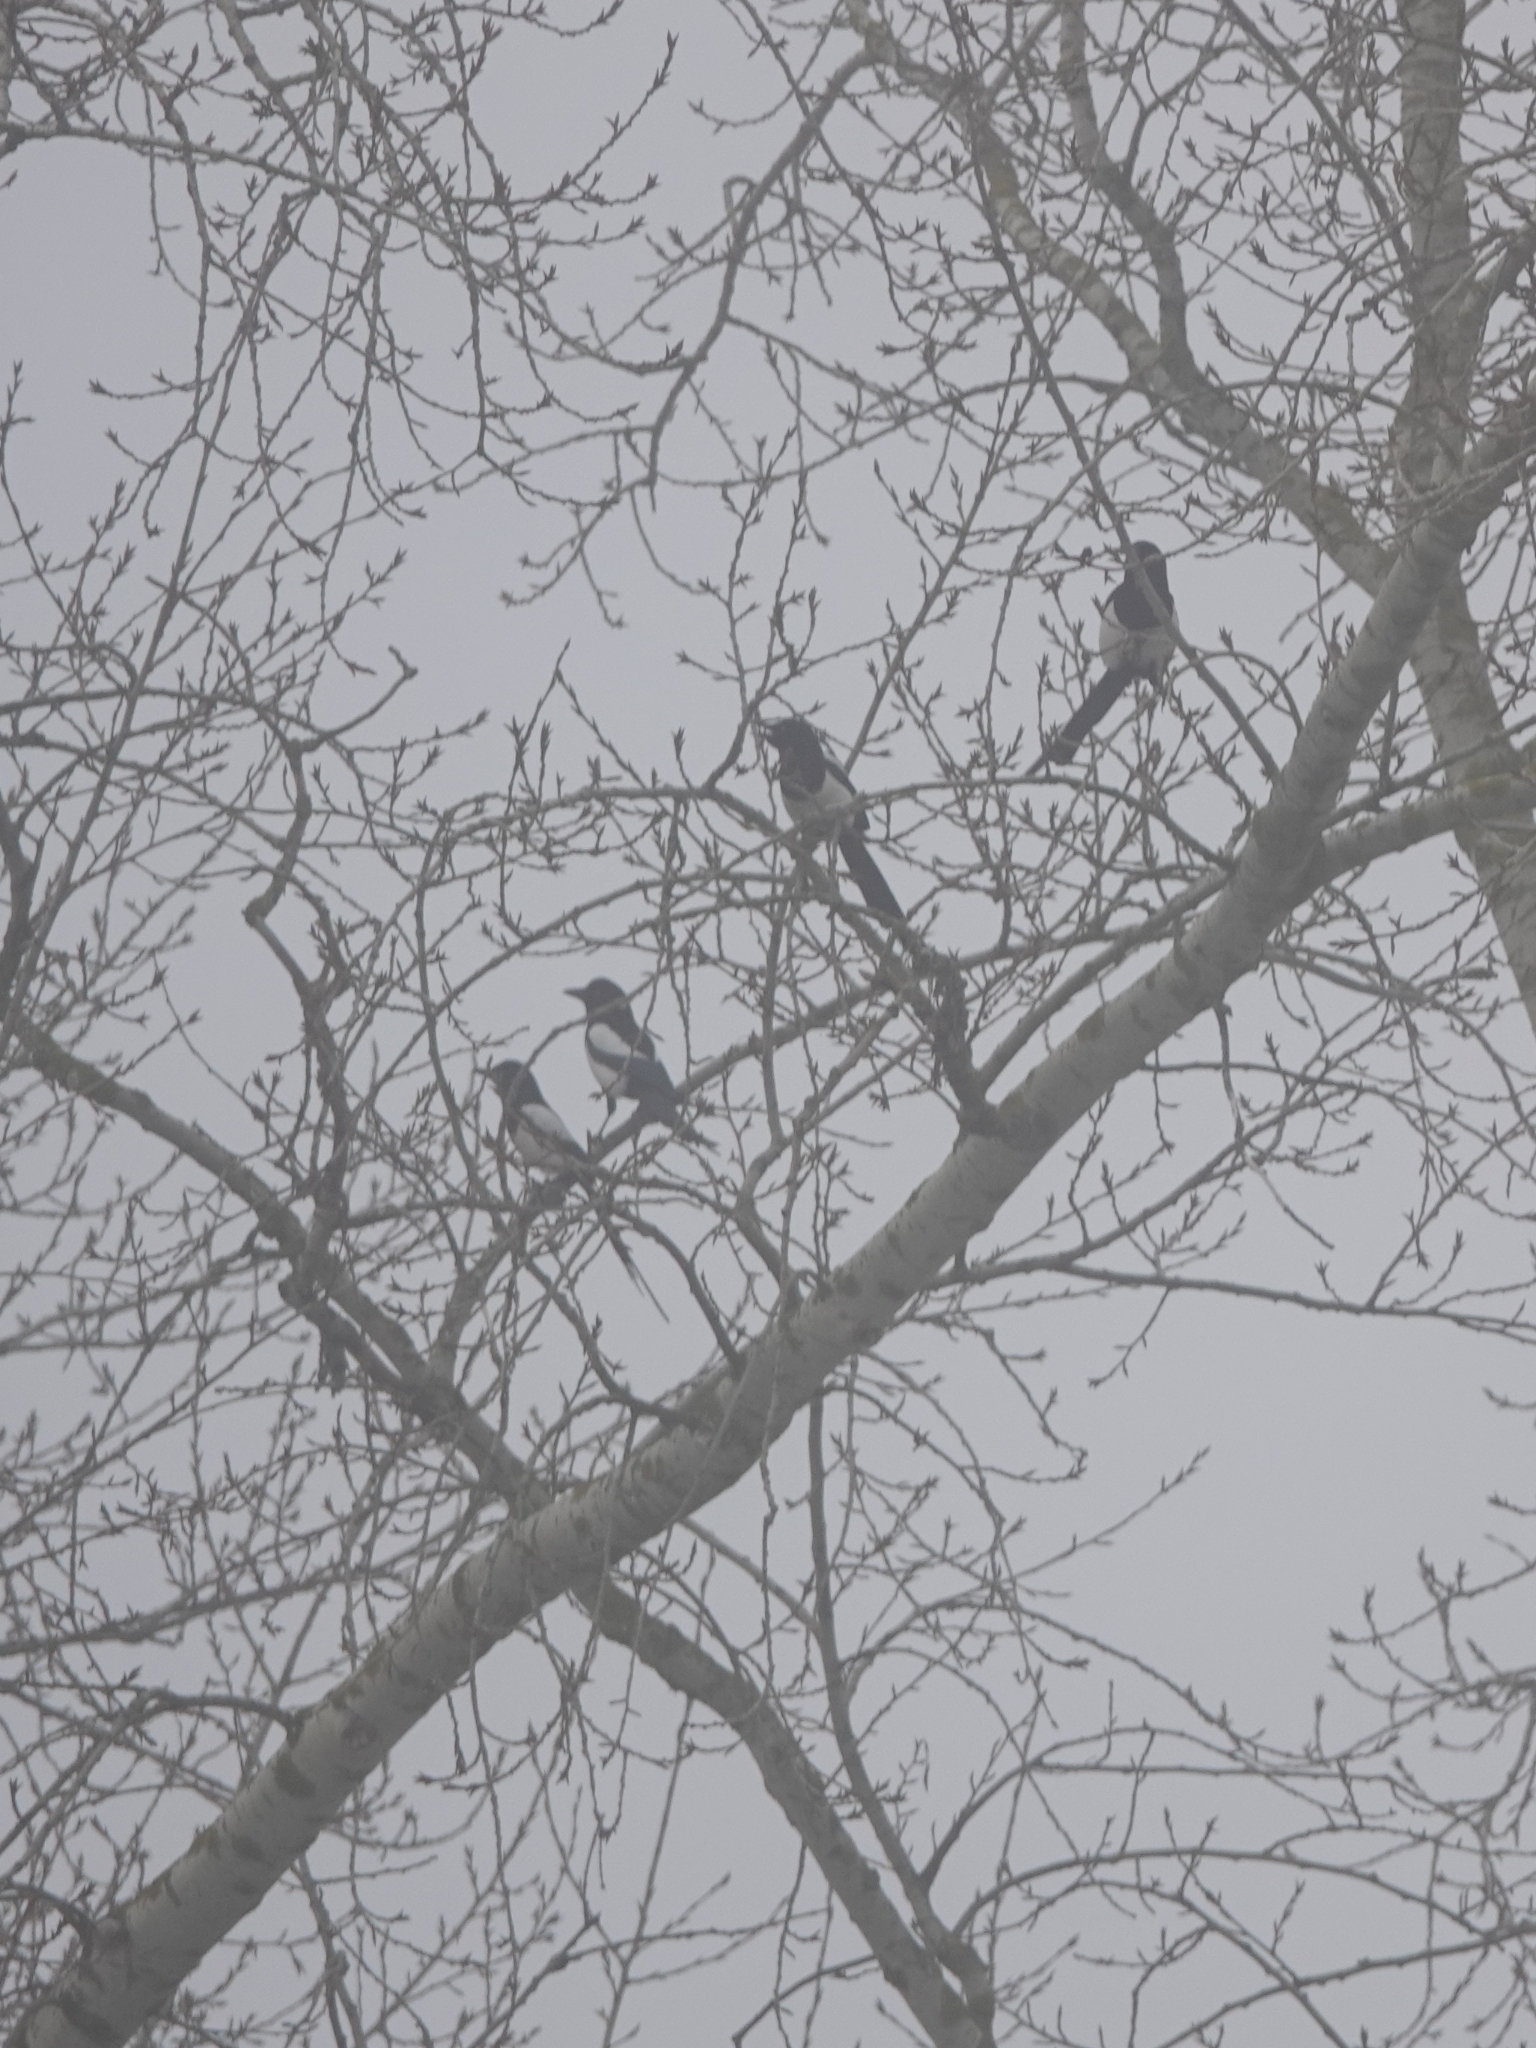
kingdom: Animalia
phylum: Chordata
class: Aves
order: Passeriformes
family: Corvidae
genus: Pica
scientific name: Pica pica
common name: Eurasian magpie
